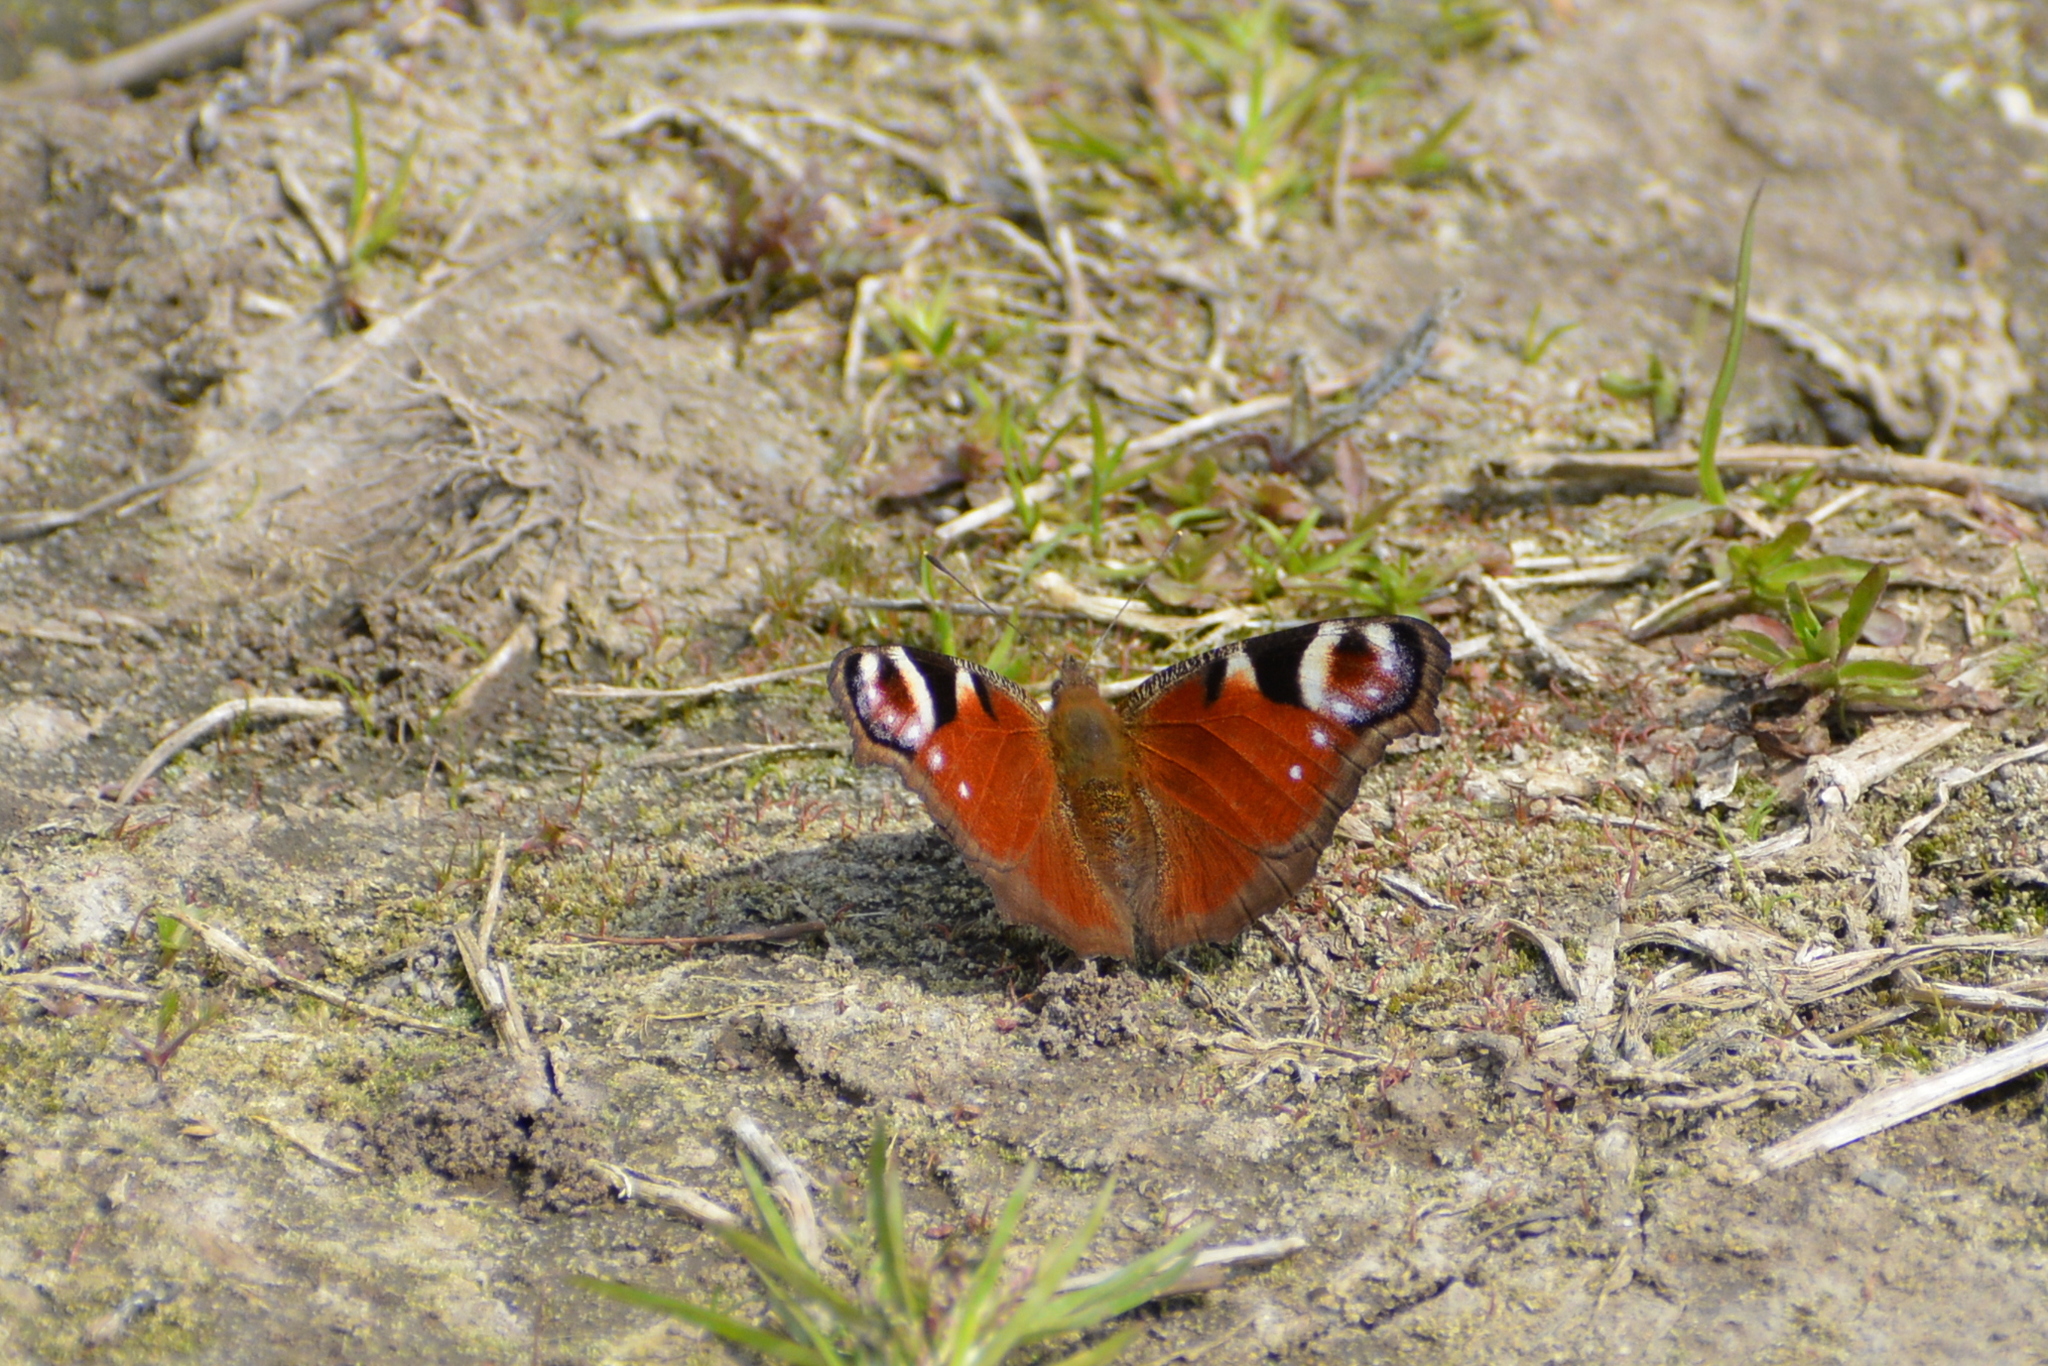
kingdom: Animalia
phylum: Arthropoda
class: Insecta
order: Lepidoptera
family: Nymphalidae
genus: Aglais
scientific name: Aglais io
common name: Peacock
